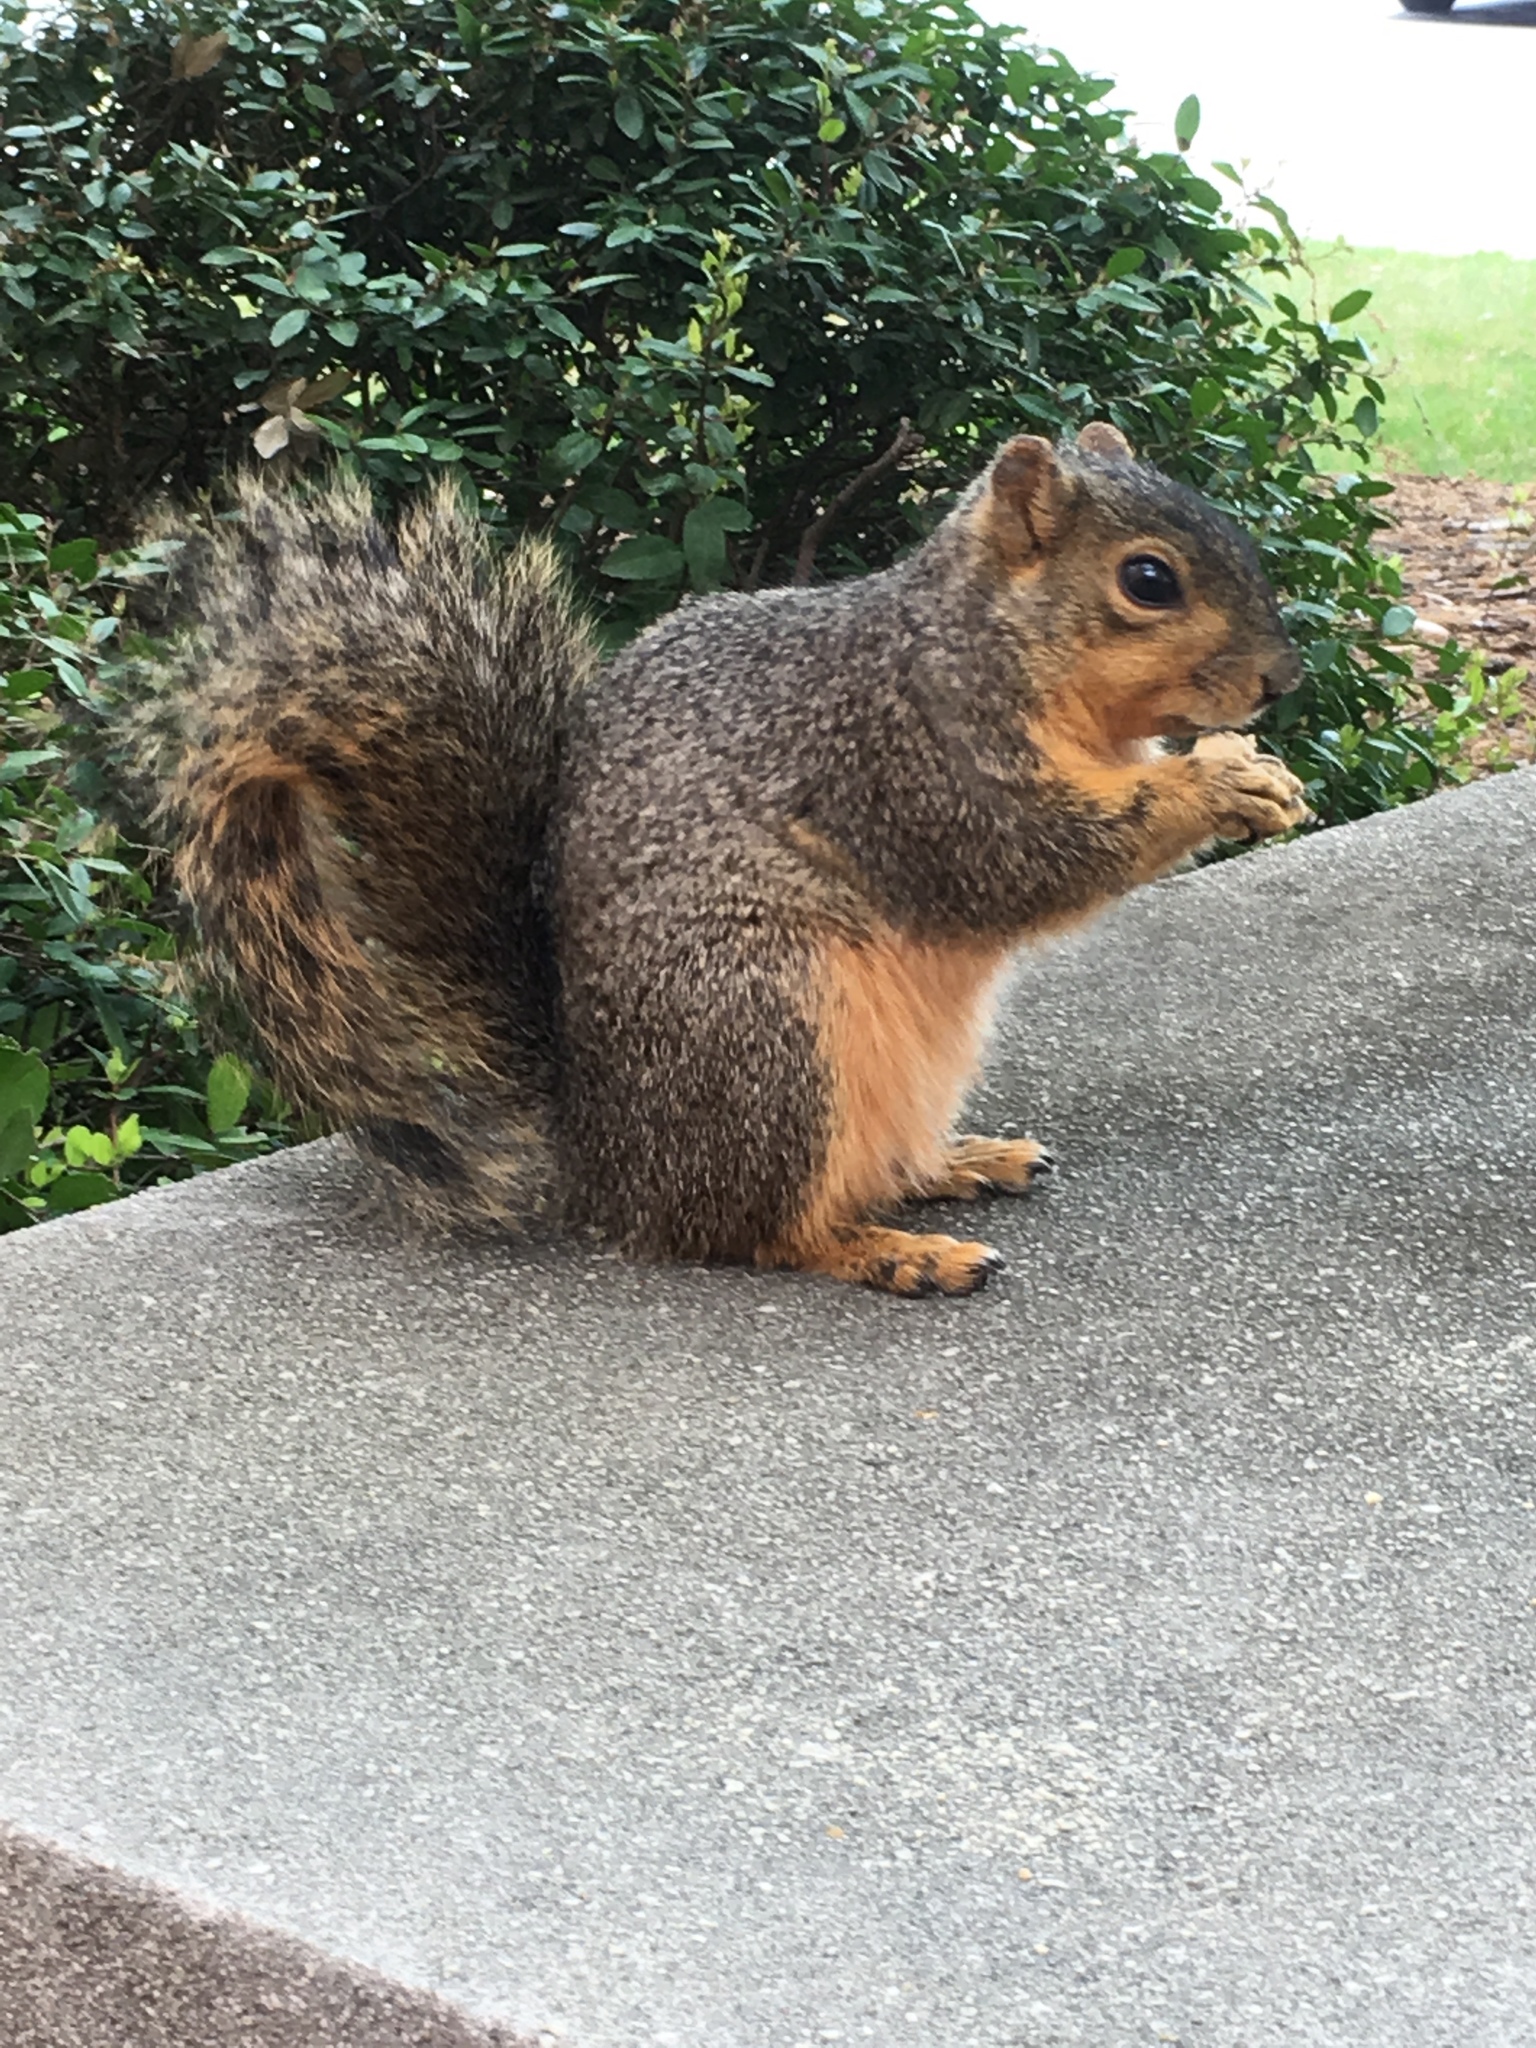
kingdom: Animalia
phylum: Chordata
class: Mammalia
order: Rodentia
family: Sciuridae
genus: Sciurus
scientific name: Sciurus niger
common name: Fox squirrel
